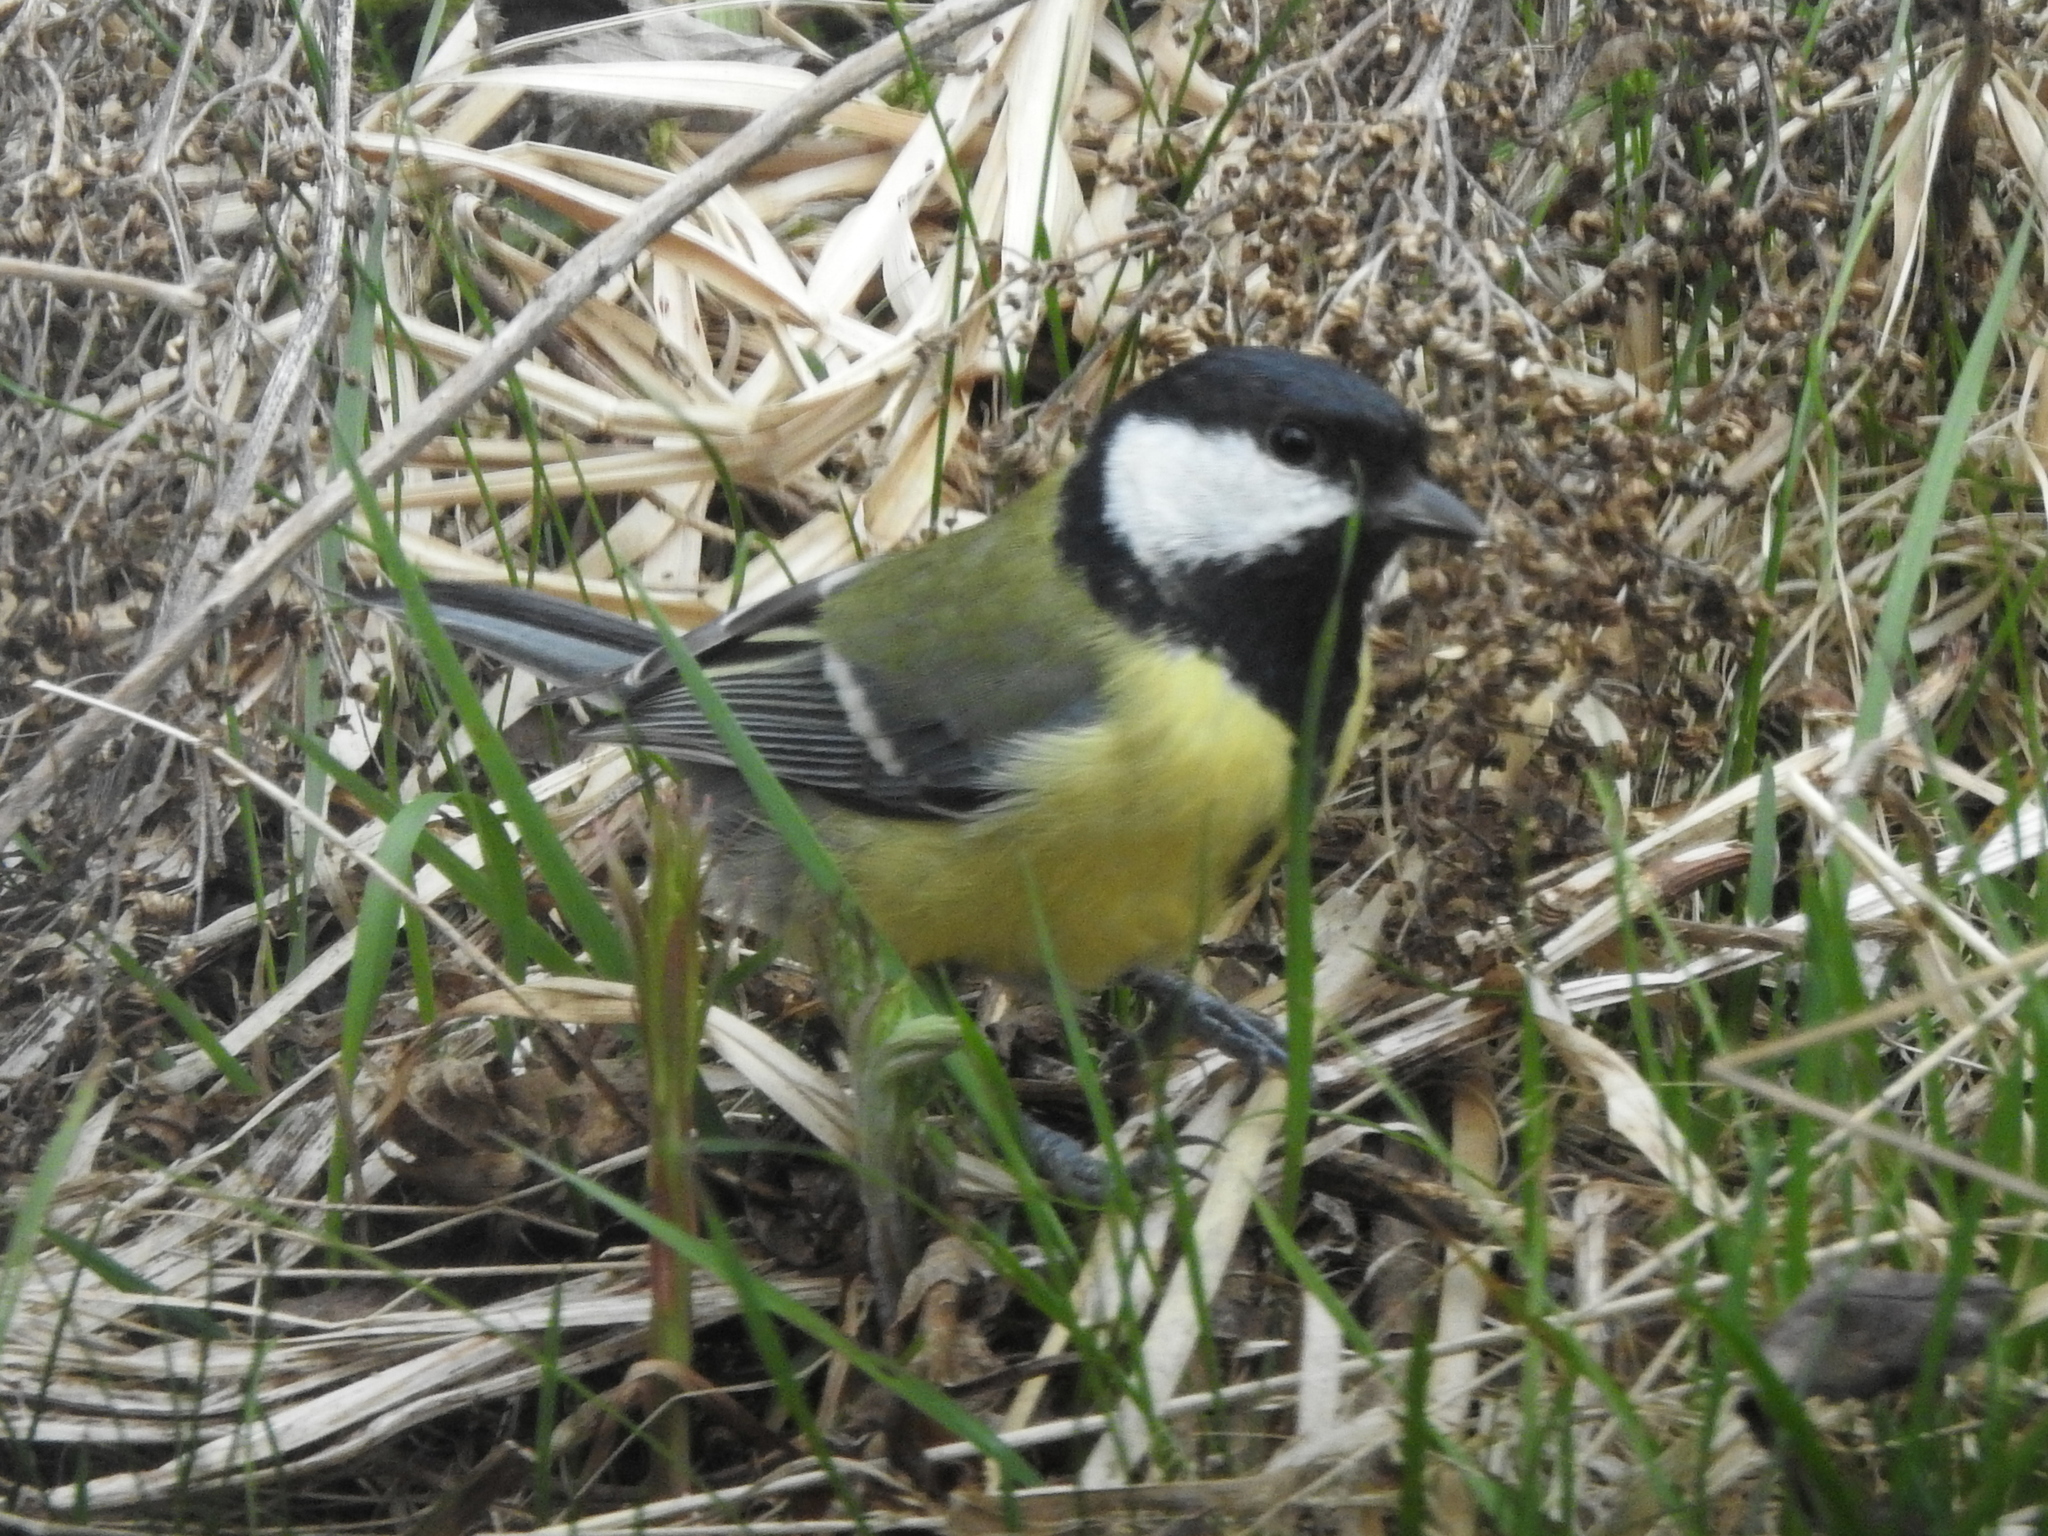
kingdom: Animalia
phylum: Chordata
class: Aves
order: Passeriformes
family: Paridae
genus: Parus
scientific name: Parus major
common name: Great tit
